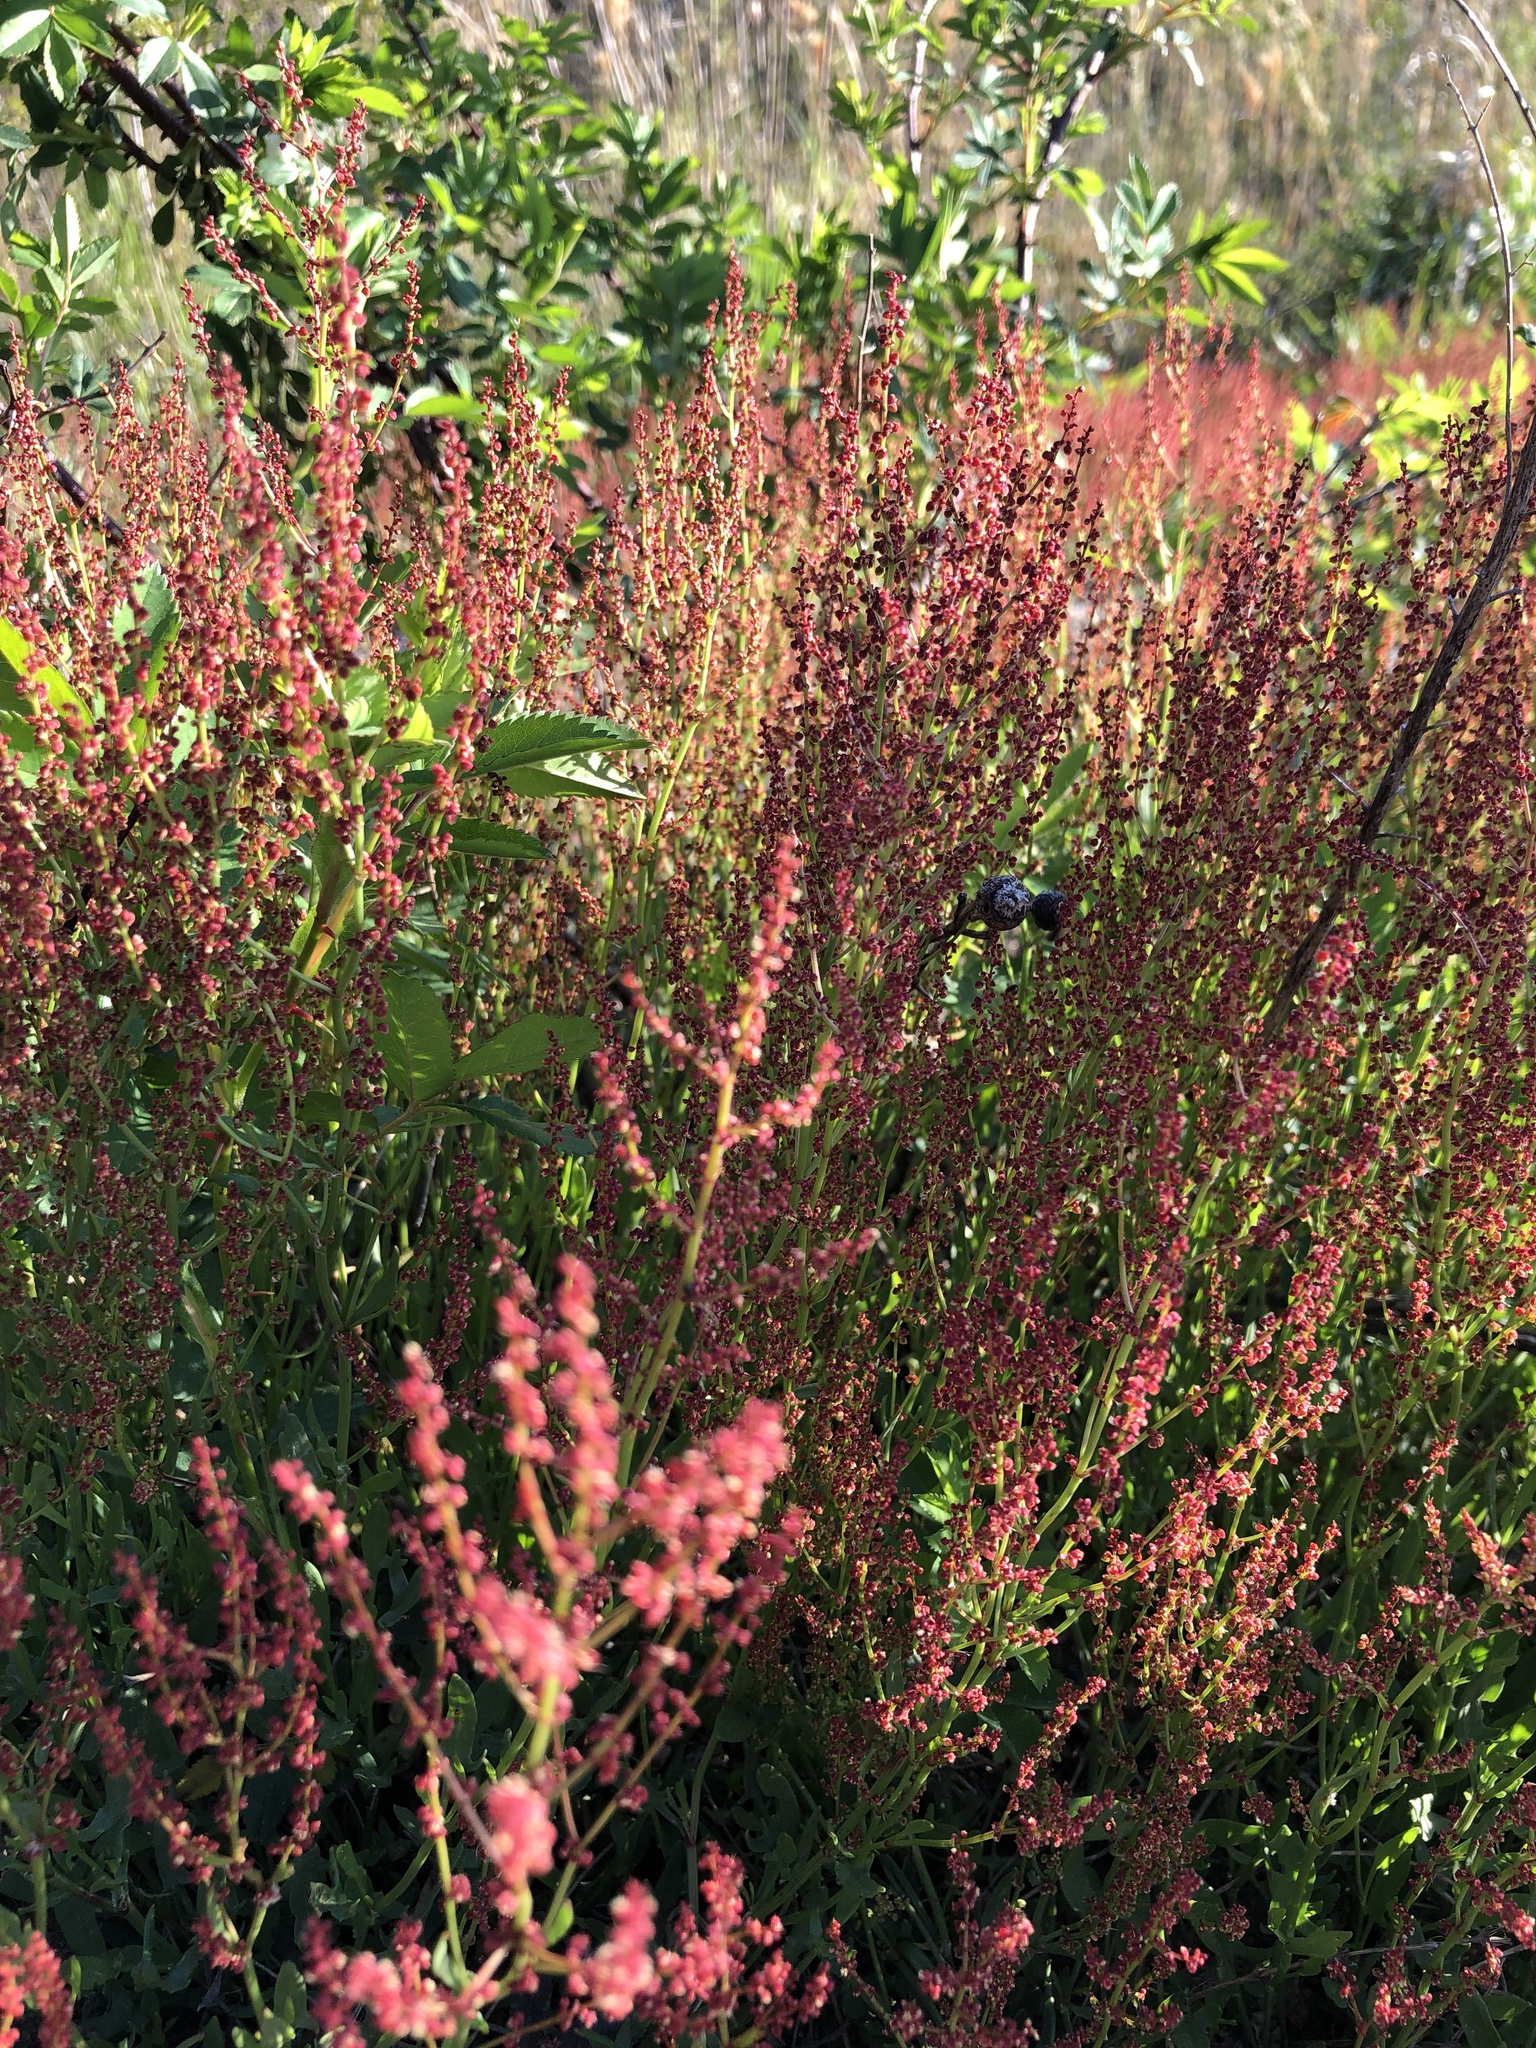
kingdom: Plantae
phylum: Tracheophyta
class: Magnoliopsida
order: Caryophyllales
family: Polygonaceae
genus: Rumex
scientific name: Rumex acetosella
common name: Common sheep sorrel
